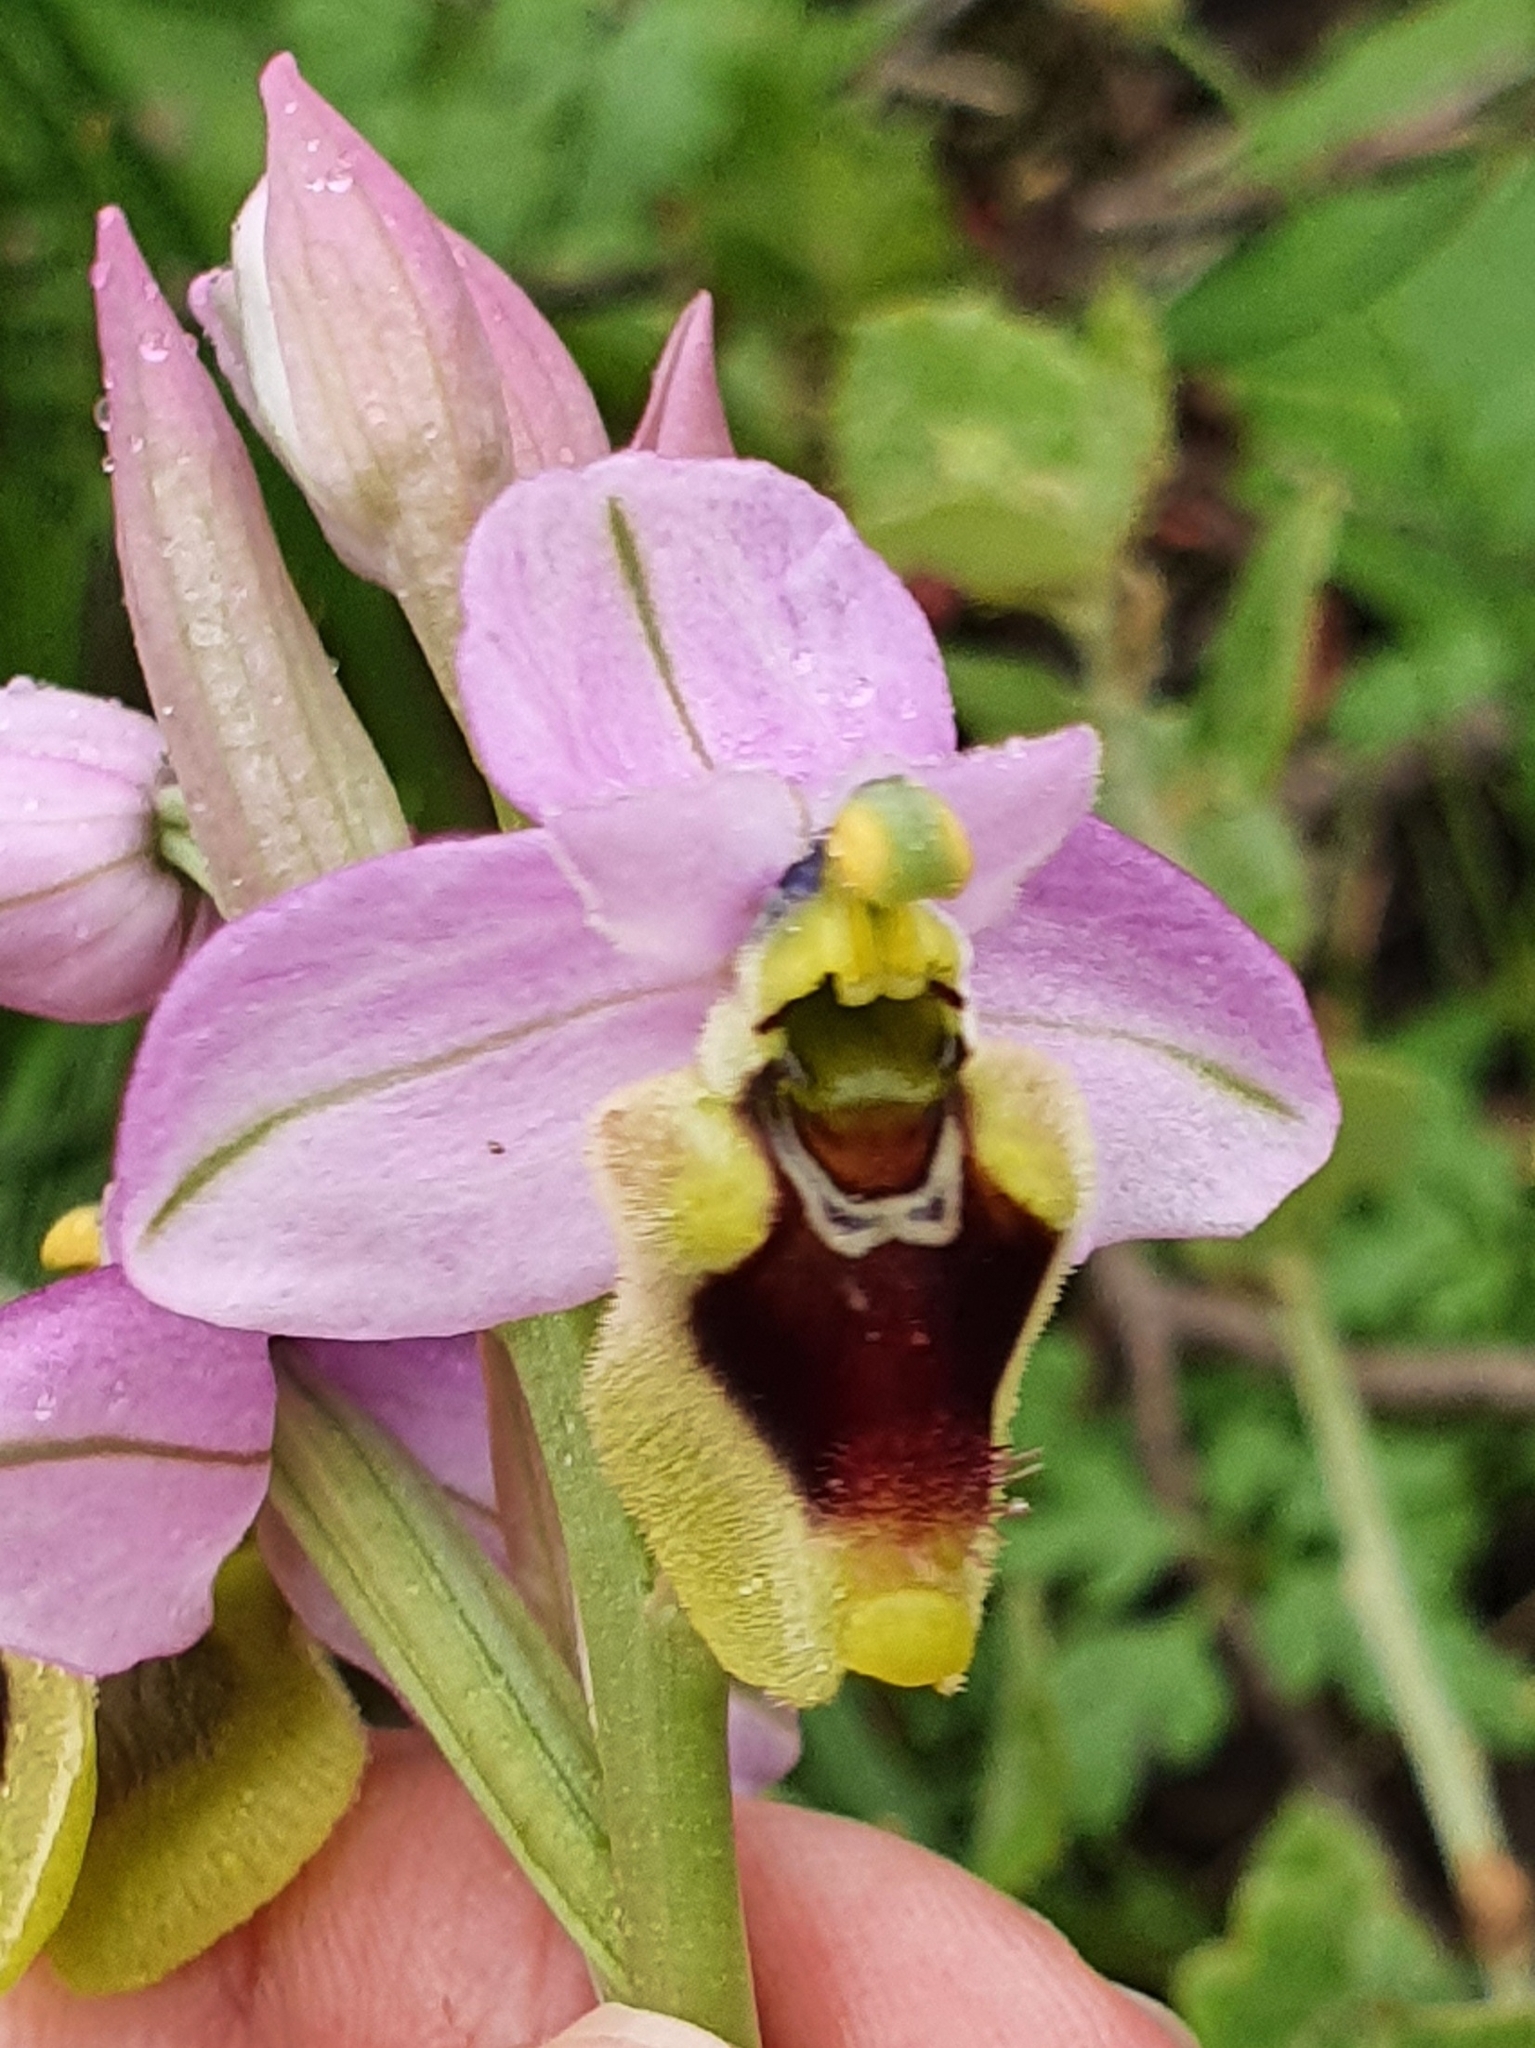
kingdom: Plantae
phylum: Tracheophyta
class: Liliopsida
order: Asparagales
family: Orchidaceae
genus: Ophrys
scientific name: Ophrys tenthredinifera
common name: Sawfly orchid
